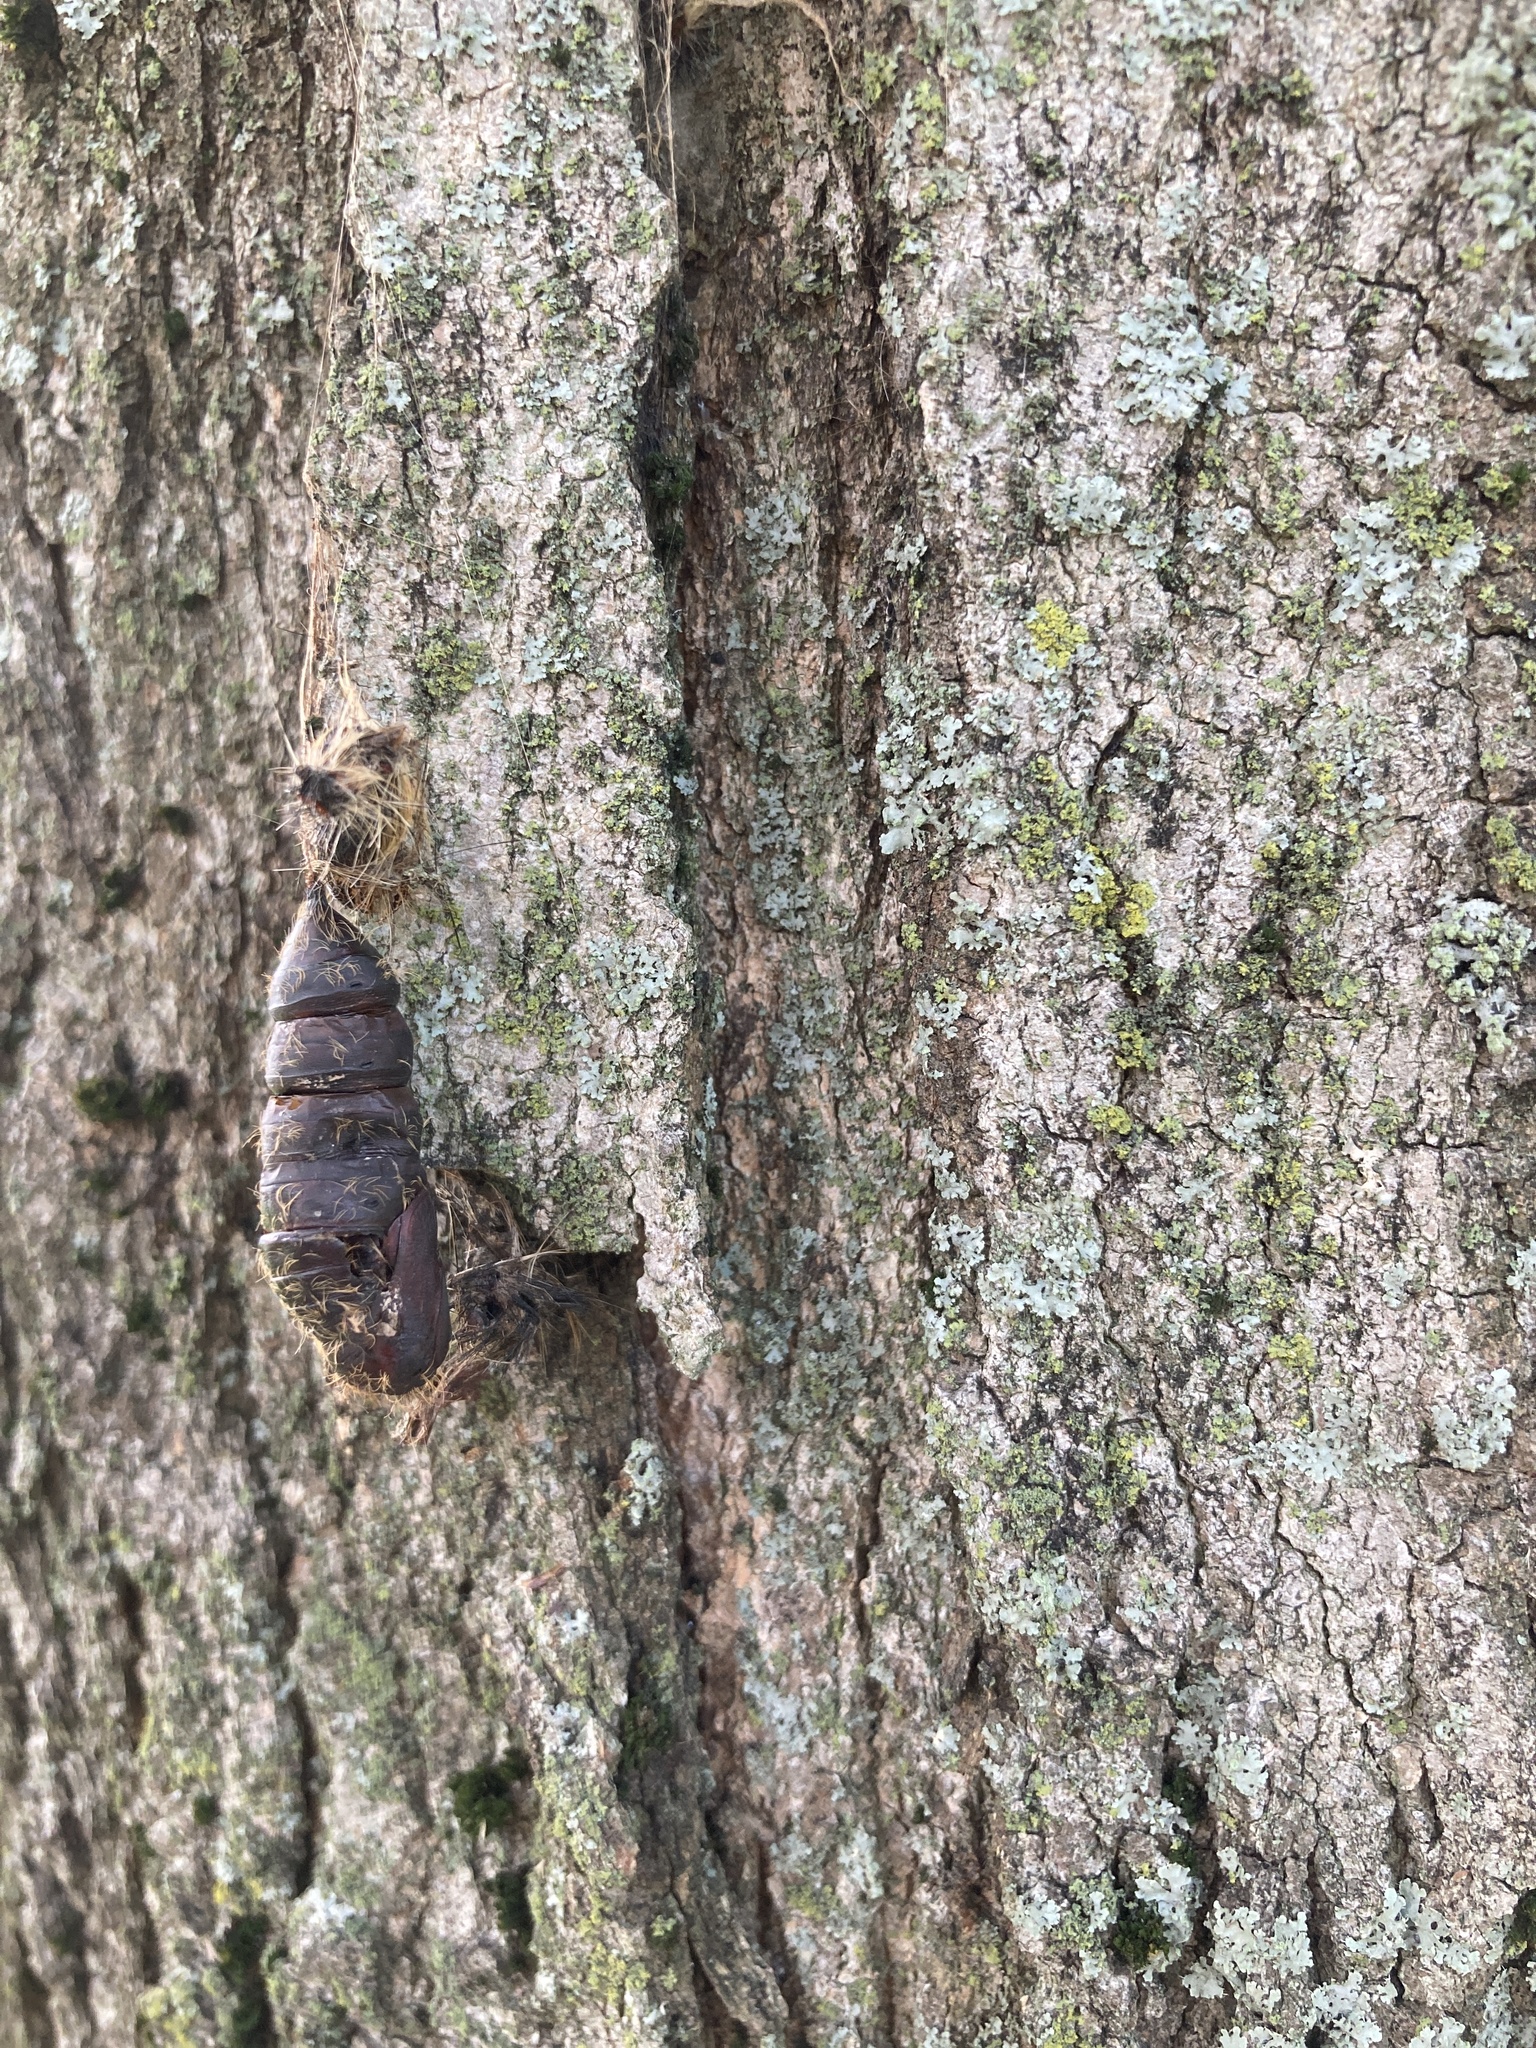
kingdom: Animalia
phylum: Arthropoda
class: Insecta
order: Lepidoptera
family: Erebidae
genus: Lymantria
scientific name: Lymantria dispar
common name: Gypsy moth
